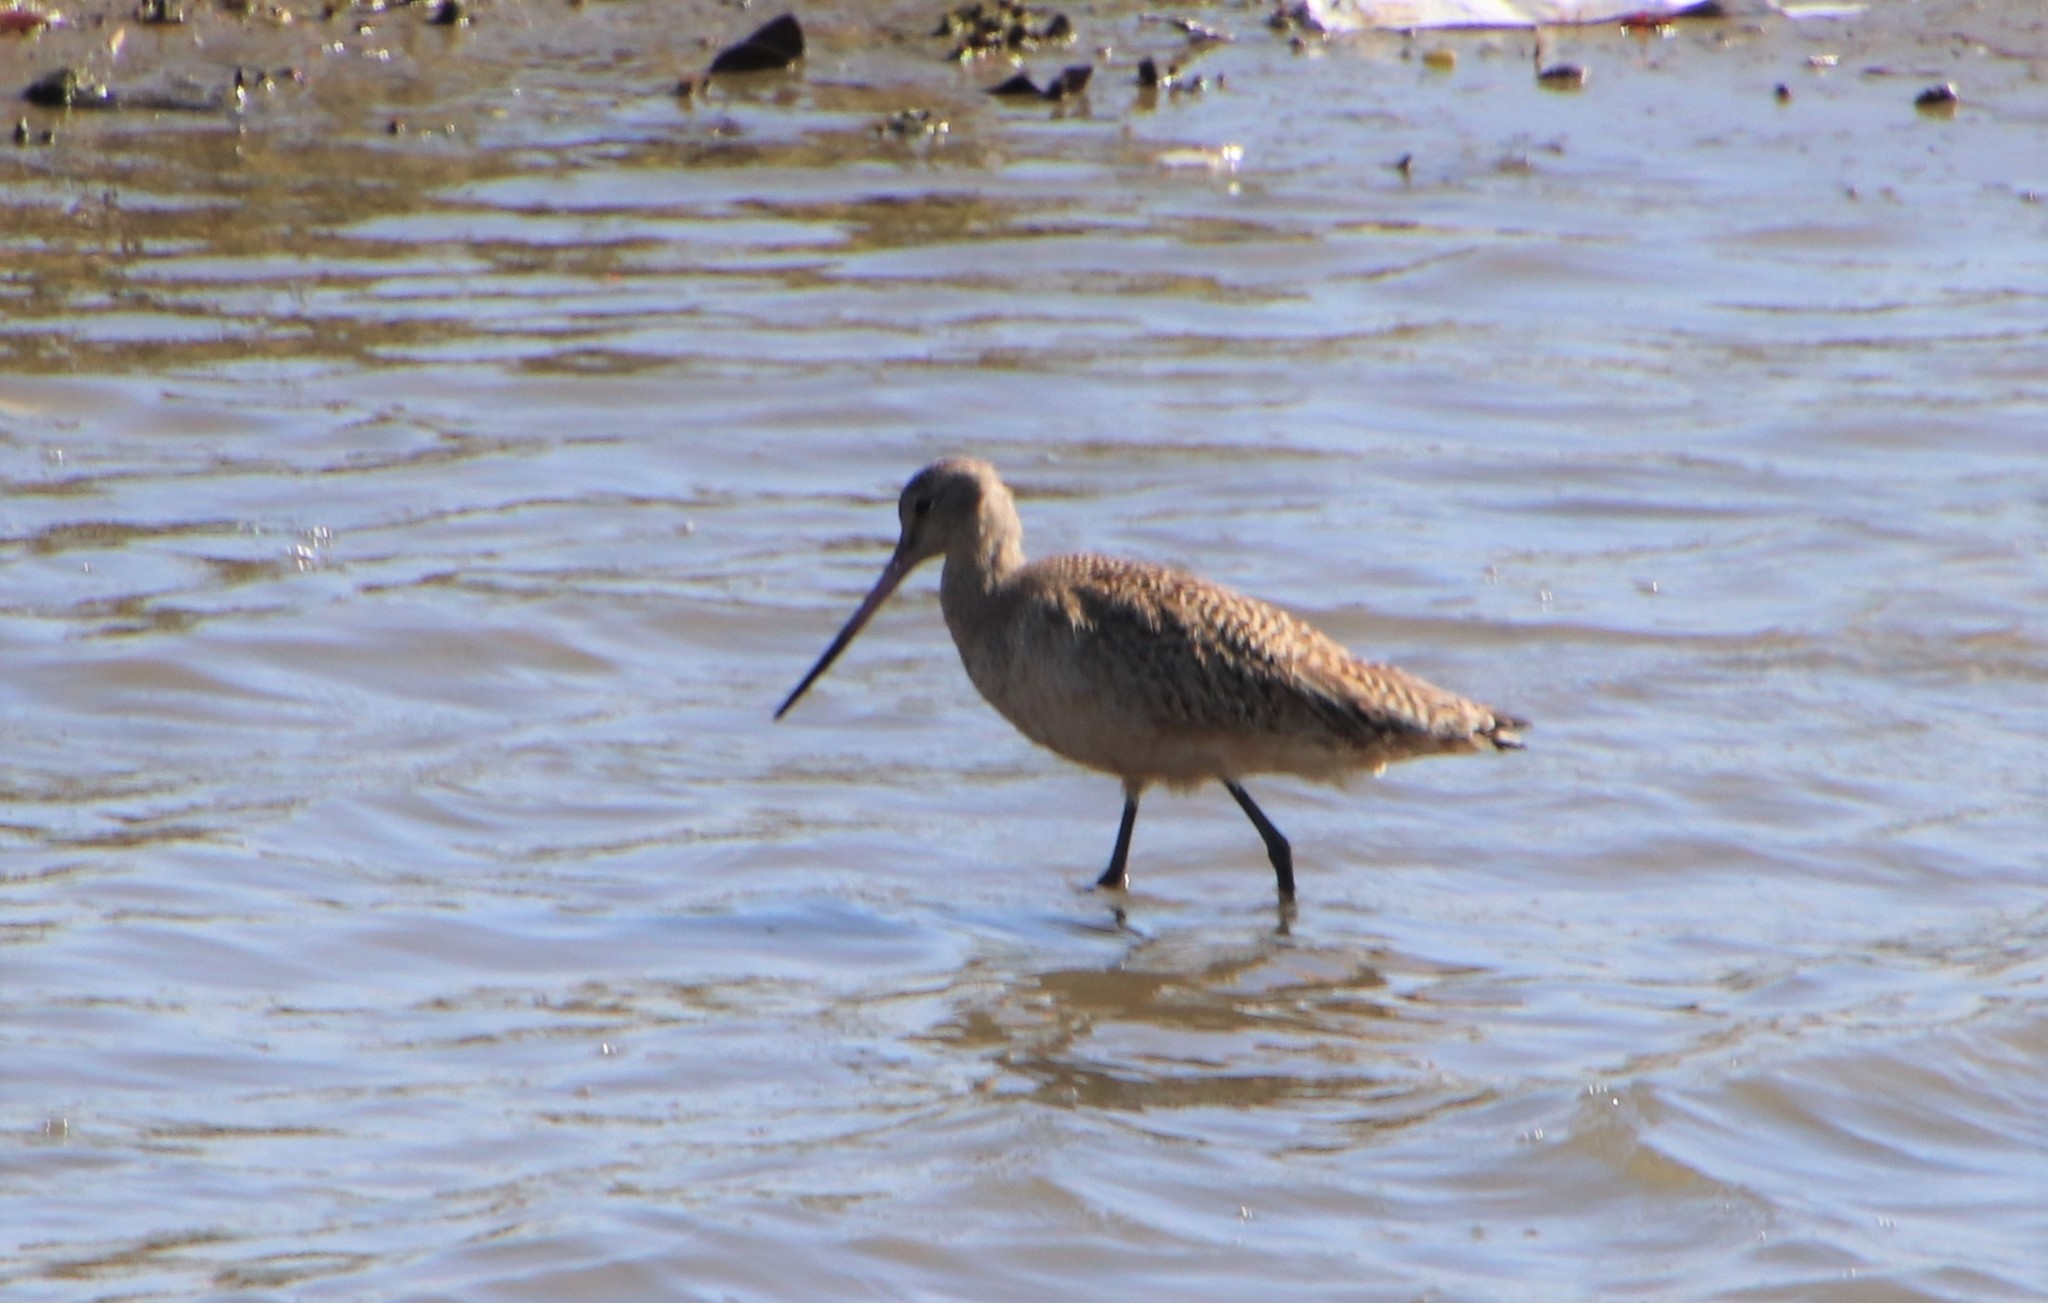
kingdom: Animalia
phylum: Chordata
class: Aves
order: Charadriiformes
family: Scolopacidae
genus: Limosa
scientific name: Limosa fedoa
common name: Marbled godwit
